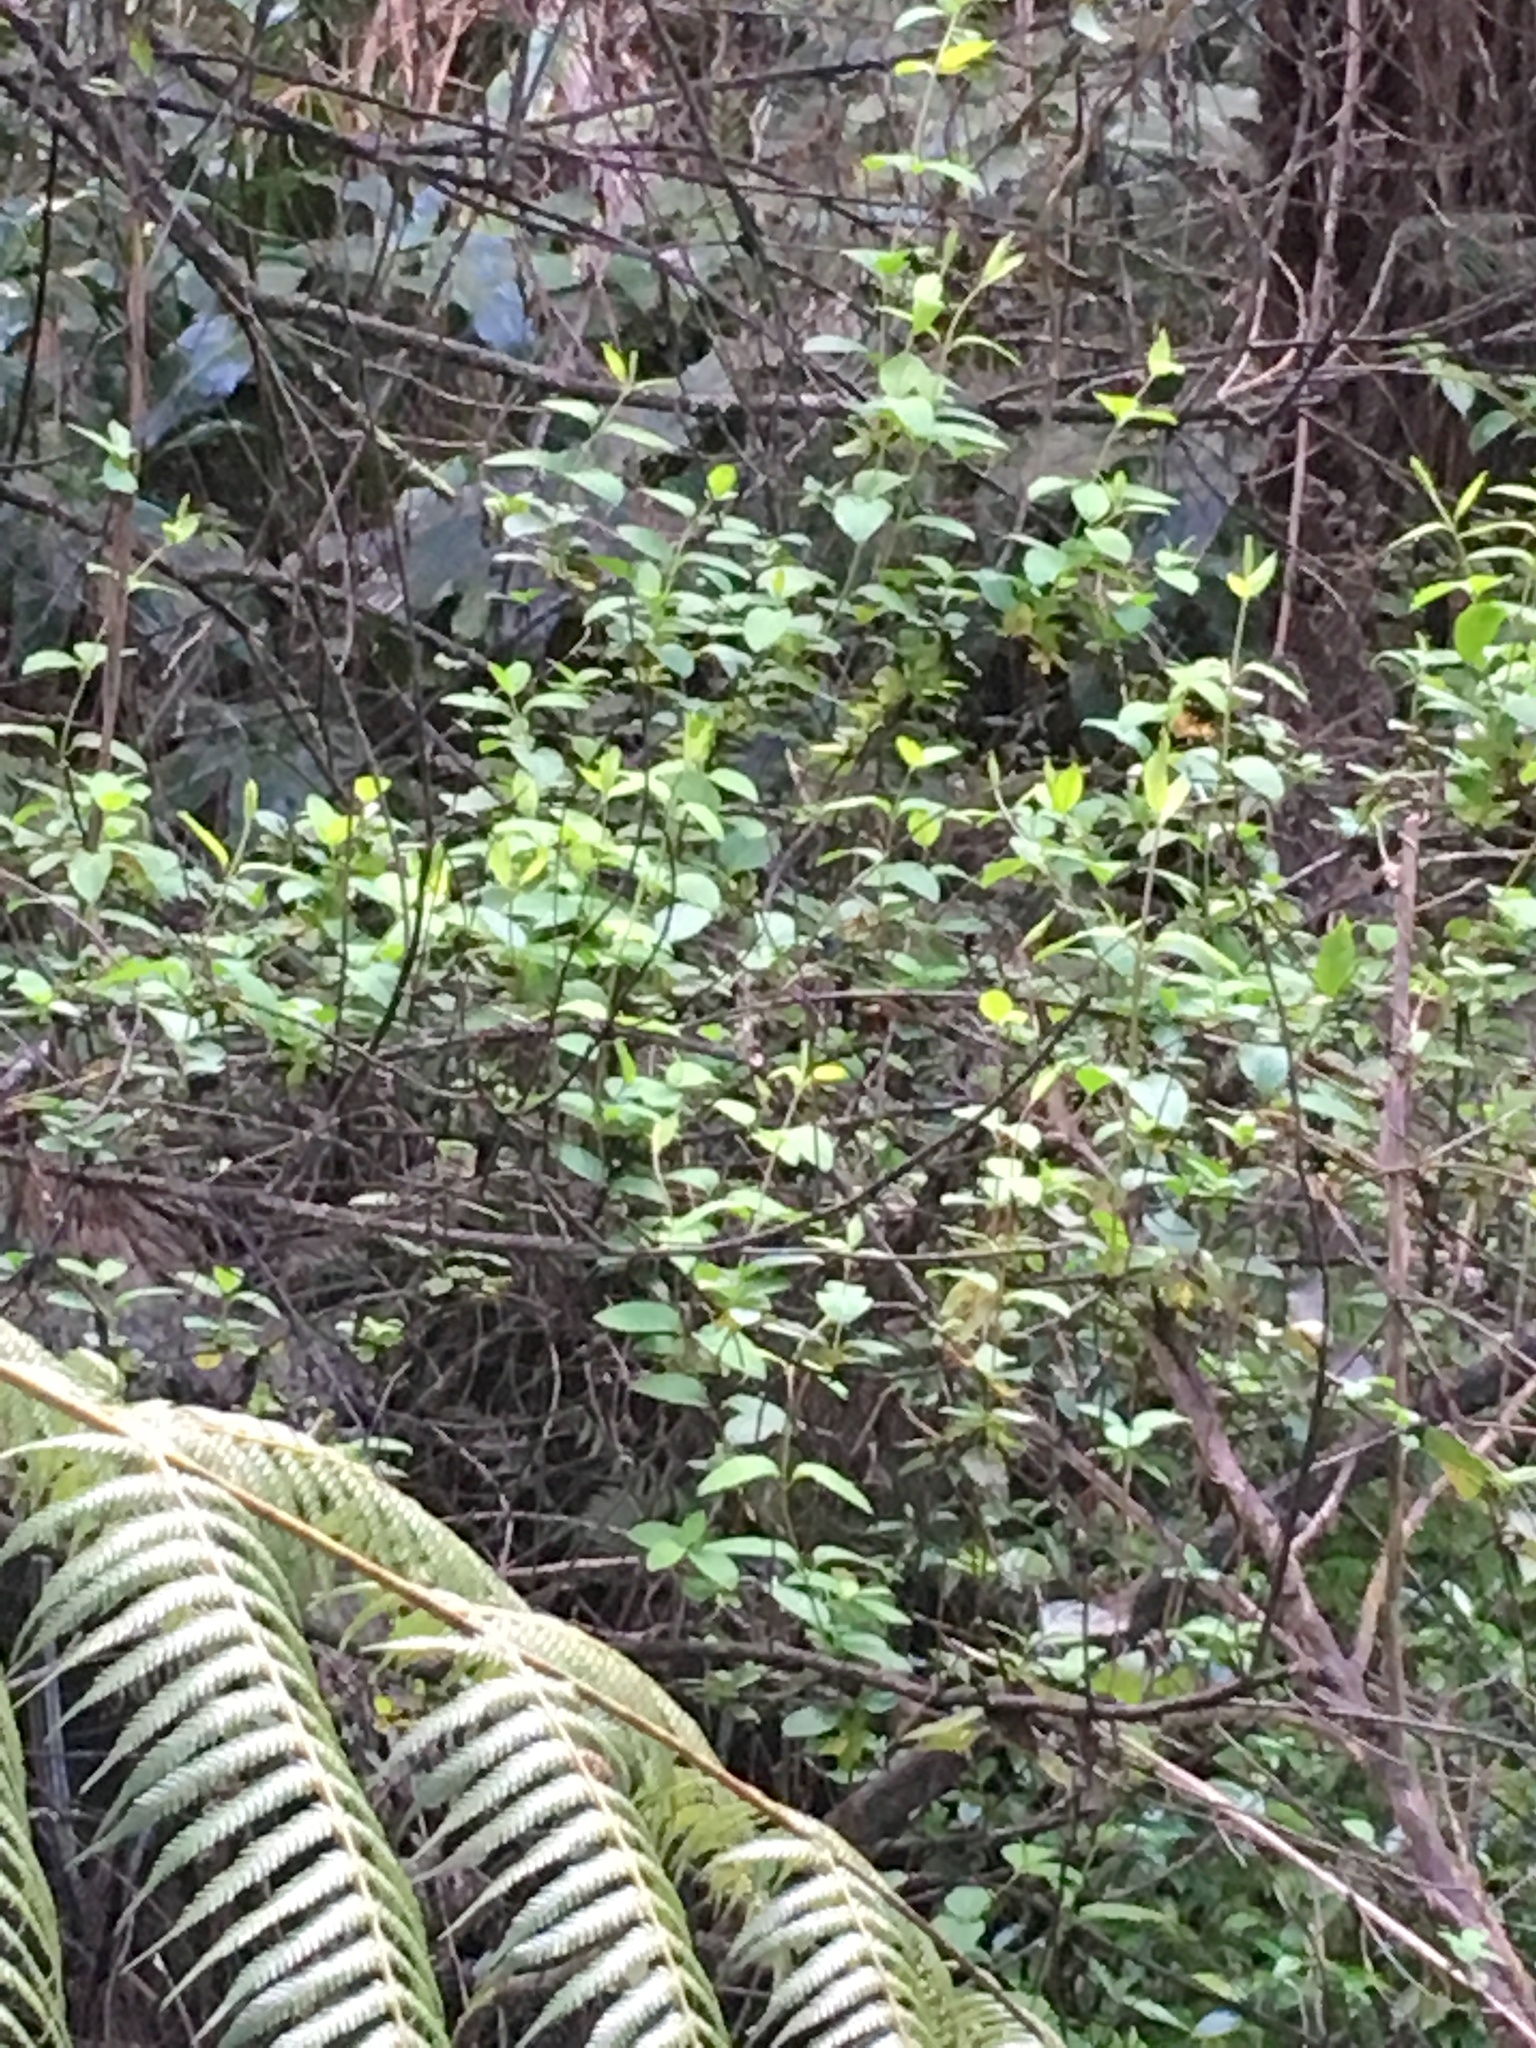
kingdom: Plantae
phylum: Tracheophyta
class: Liliopsida
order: Zingiberales
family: Zingiberaceae
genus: Hedychium
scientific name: Hedychium gardnerianum
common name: Himalayan ginger
